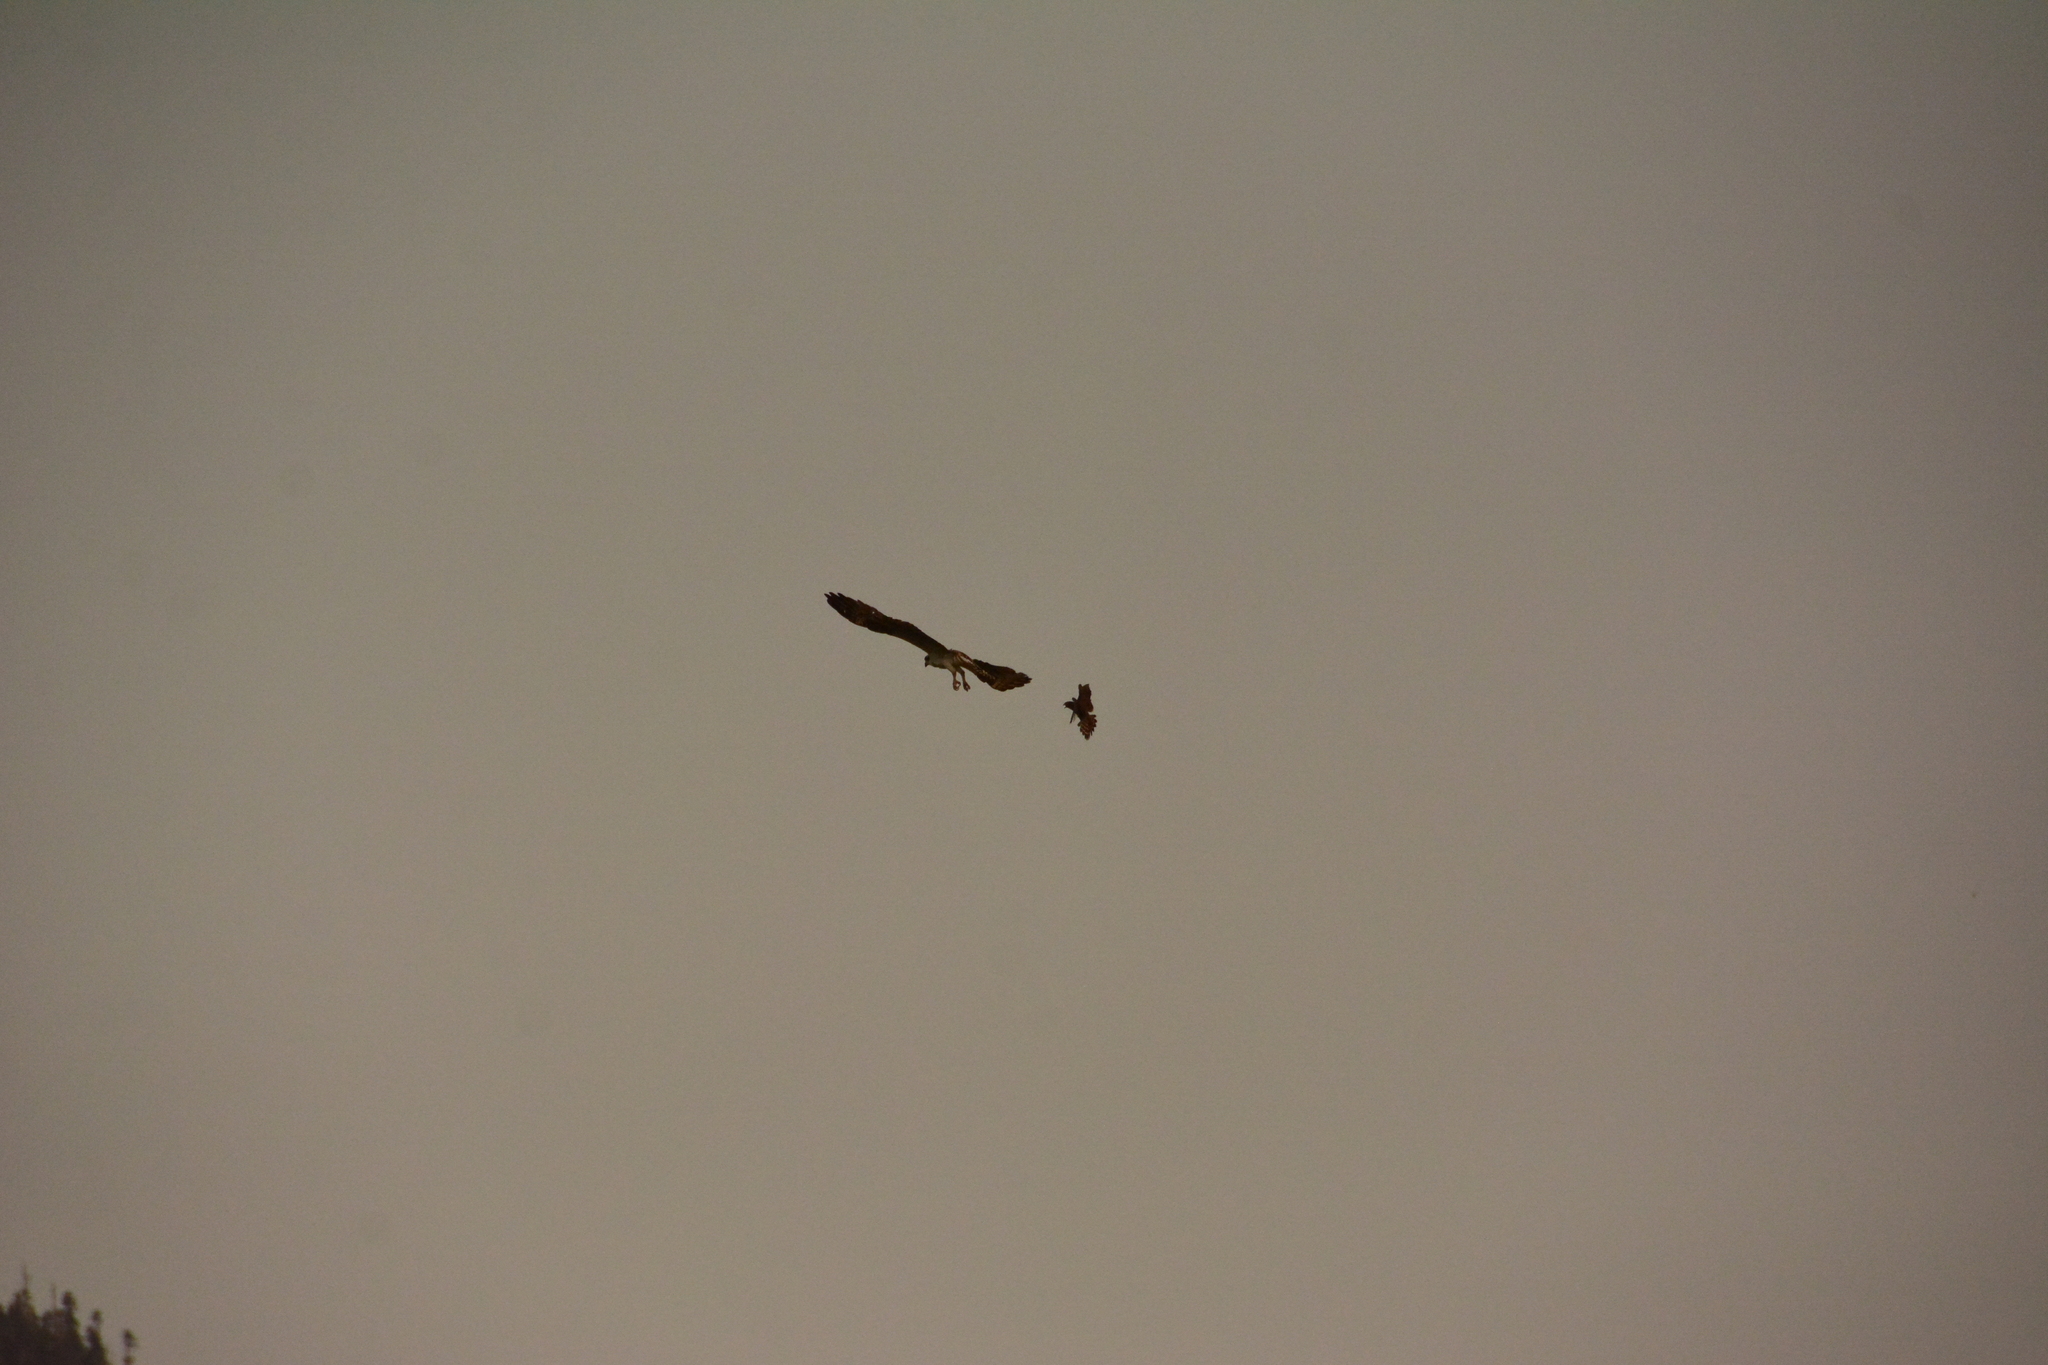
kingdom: Animalia
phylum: Chordata
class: Aves
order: Accipitriformes
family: Pandionidae
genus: Pandion
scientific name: Pandion haliaetus
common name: Osprey
